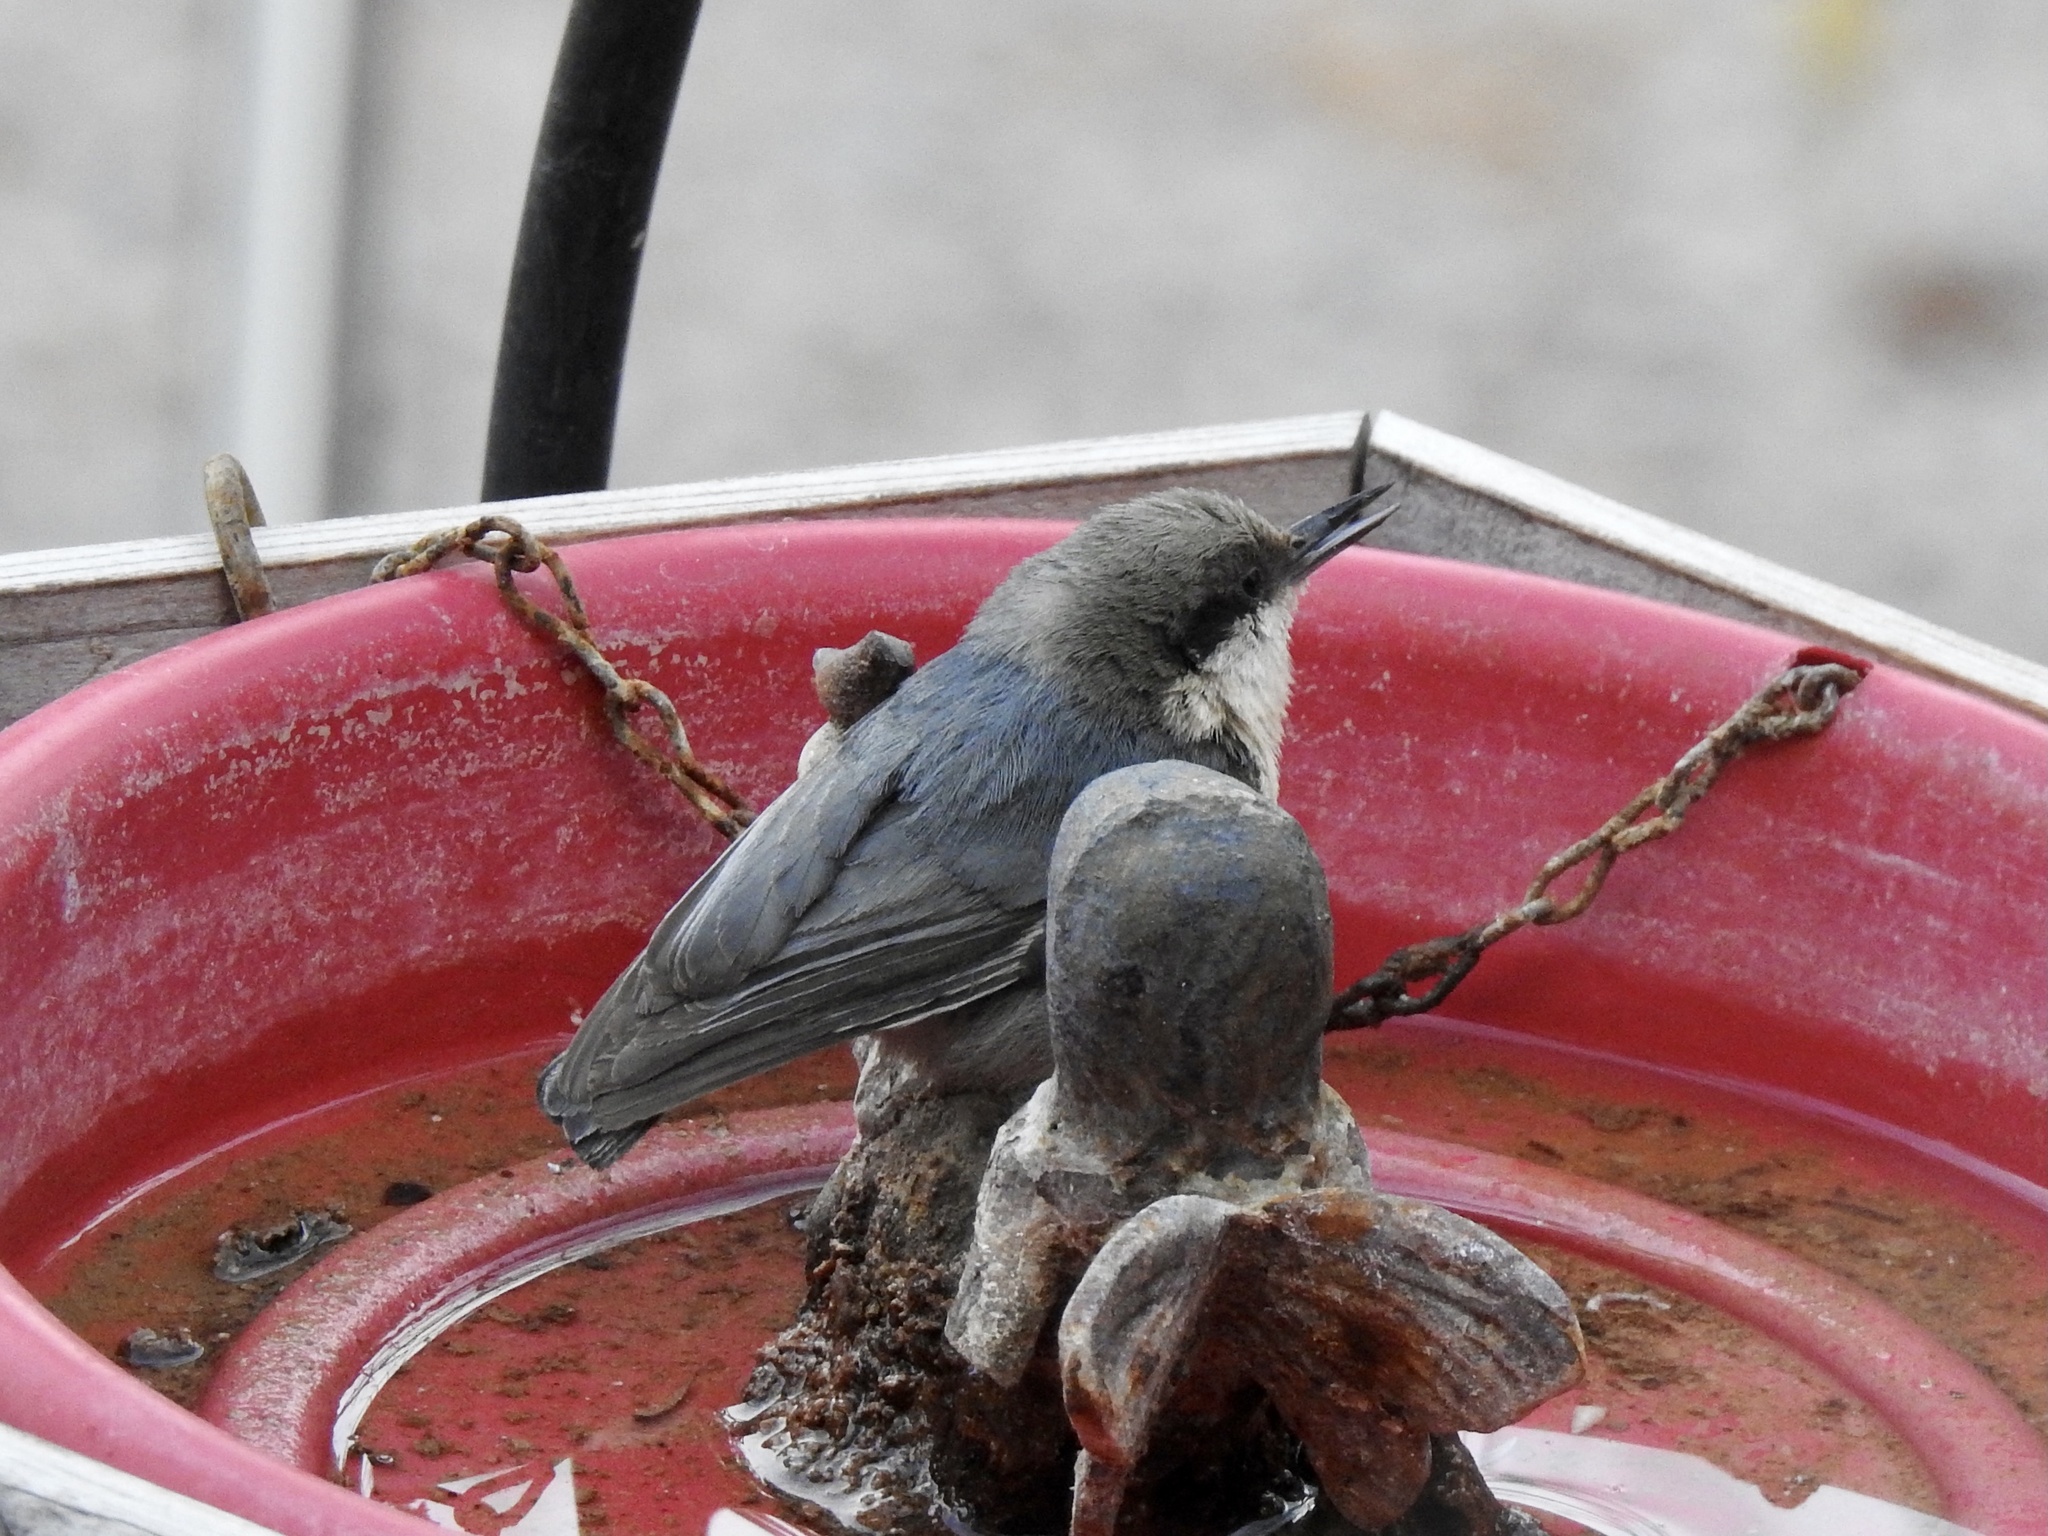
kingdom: Animalia
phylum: Chordata
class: Aves
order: Passeriformes
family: Sittidae
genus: Sitta
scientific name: Sitta pygmaea
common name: Pygmy nuthatch
